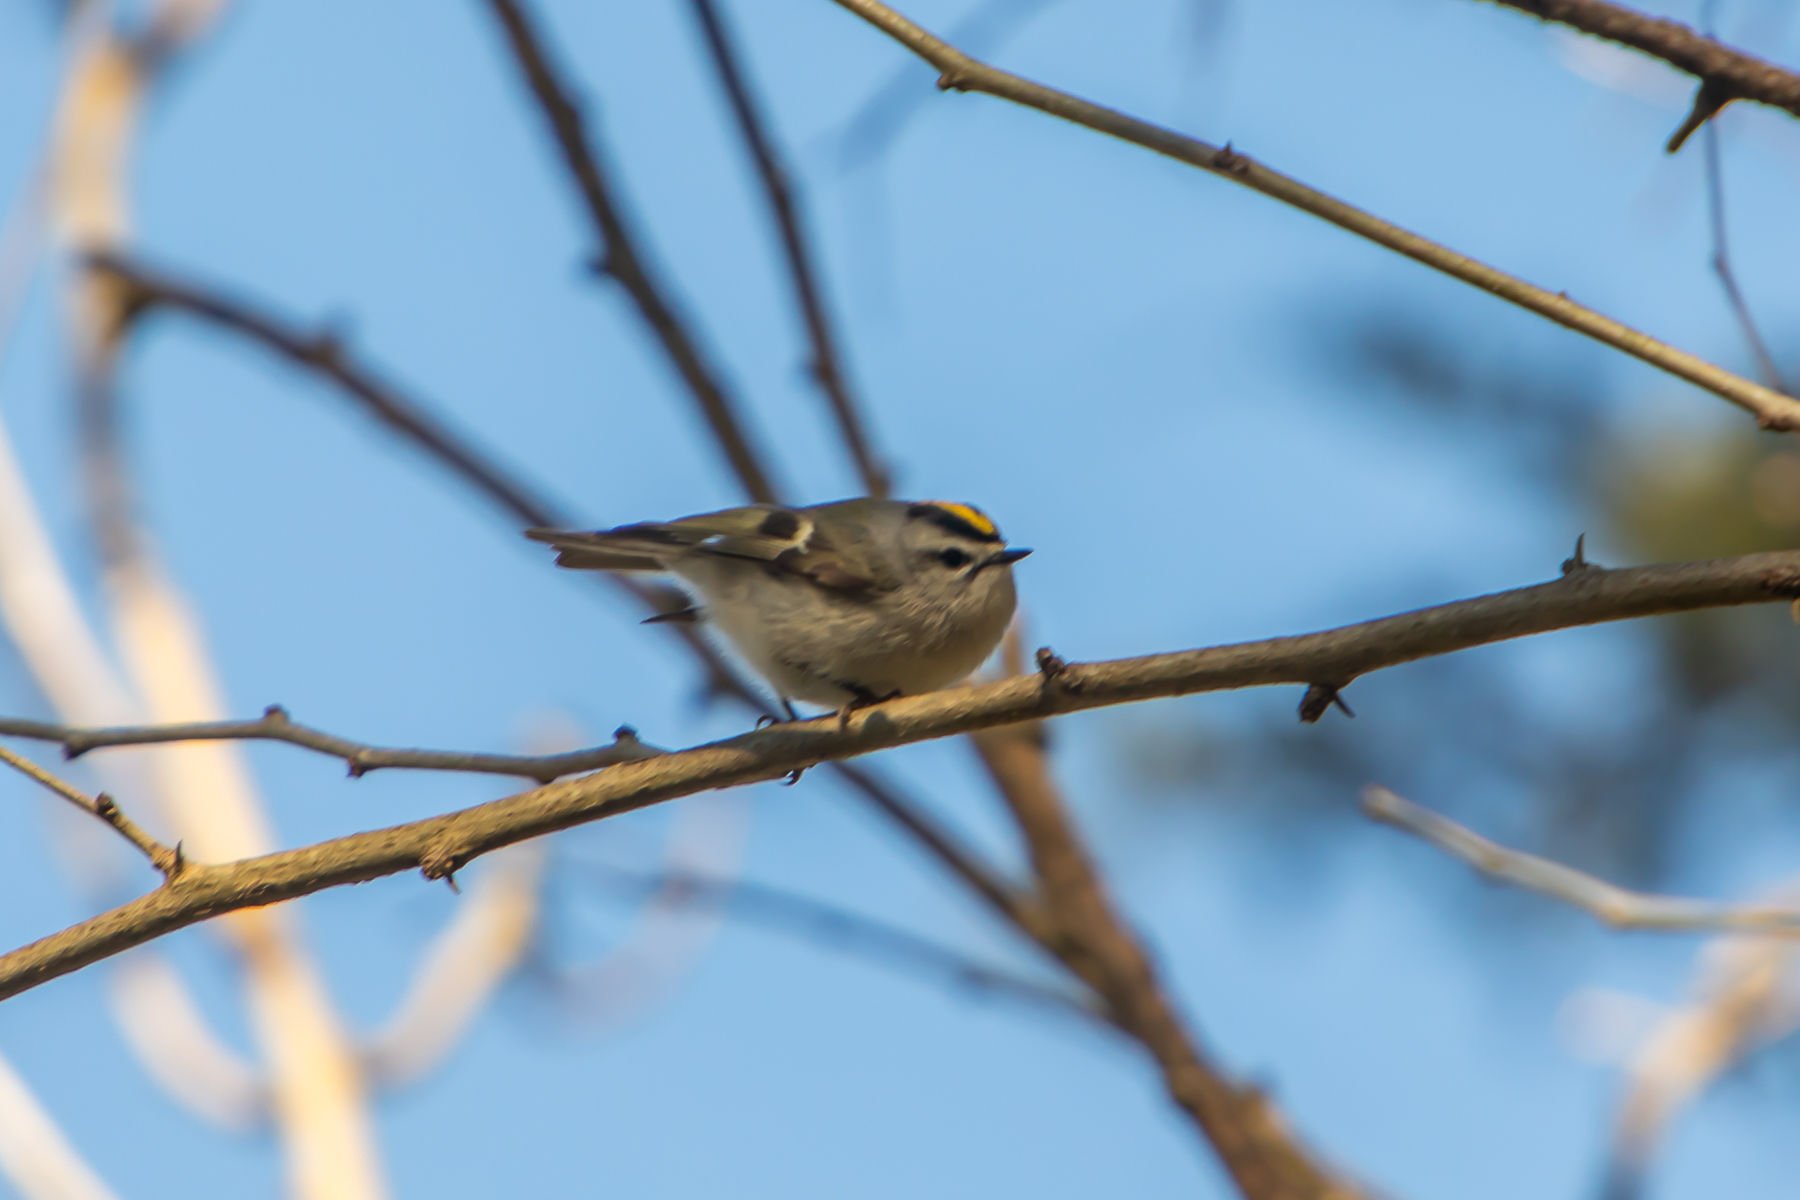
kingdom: Animalia
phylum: Chordata
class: Aves
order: Passeriformes
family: Regulidae
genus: Regulus
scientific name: Regulus satrapa
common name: Golden-crowned kinglet
